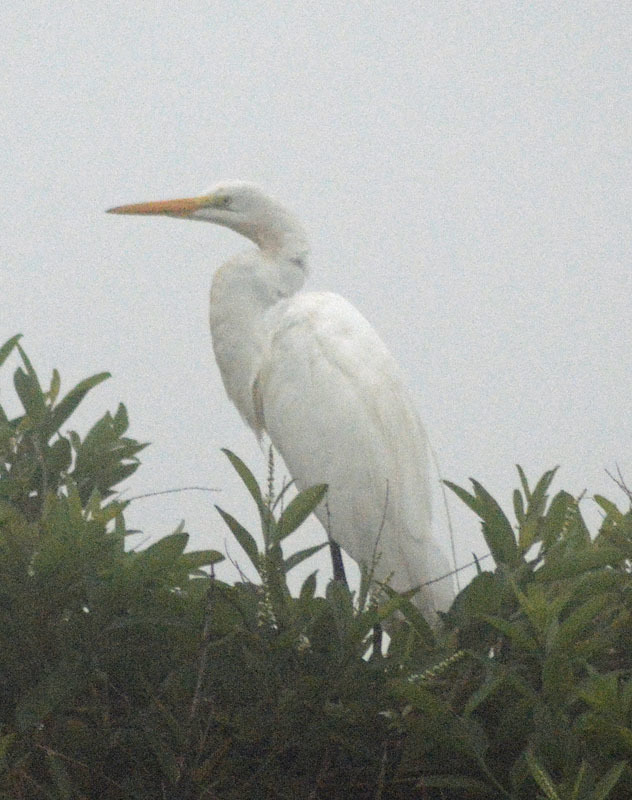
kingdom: Animalia
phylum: Chordata
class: Aves
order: Pelecaniformes
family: Ardeidae
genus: Ardea
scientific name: Ardea alba
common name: Great egret
